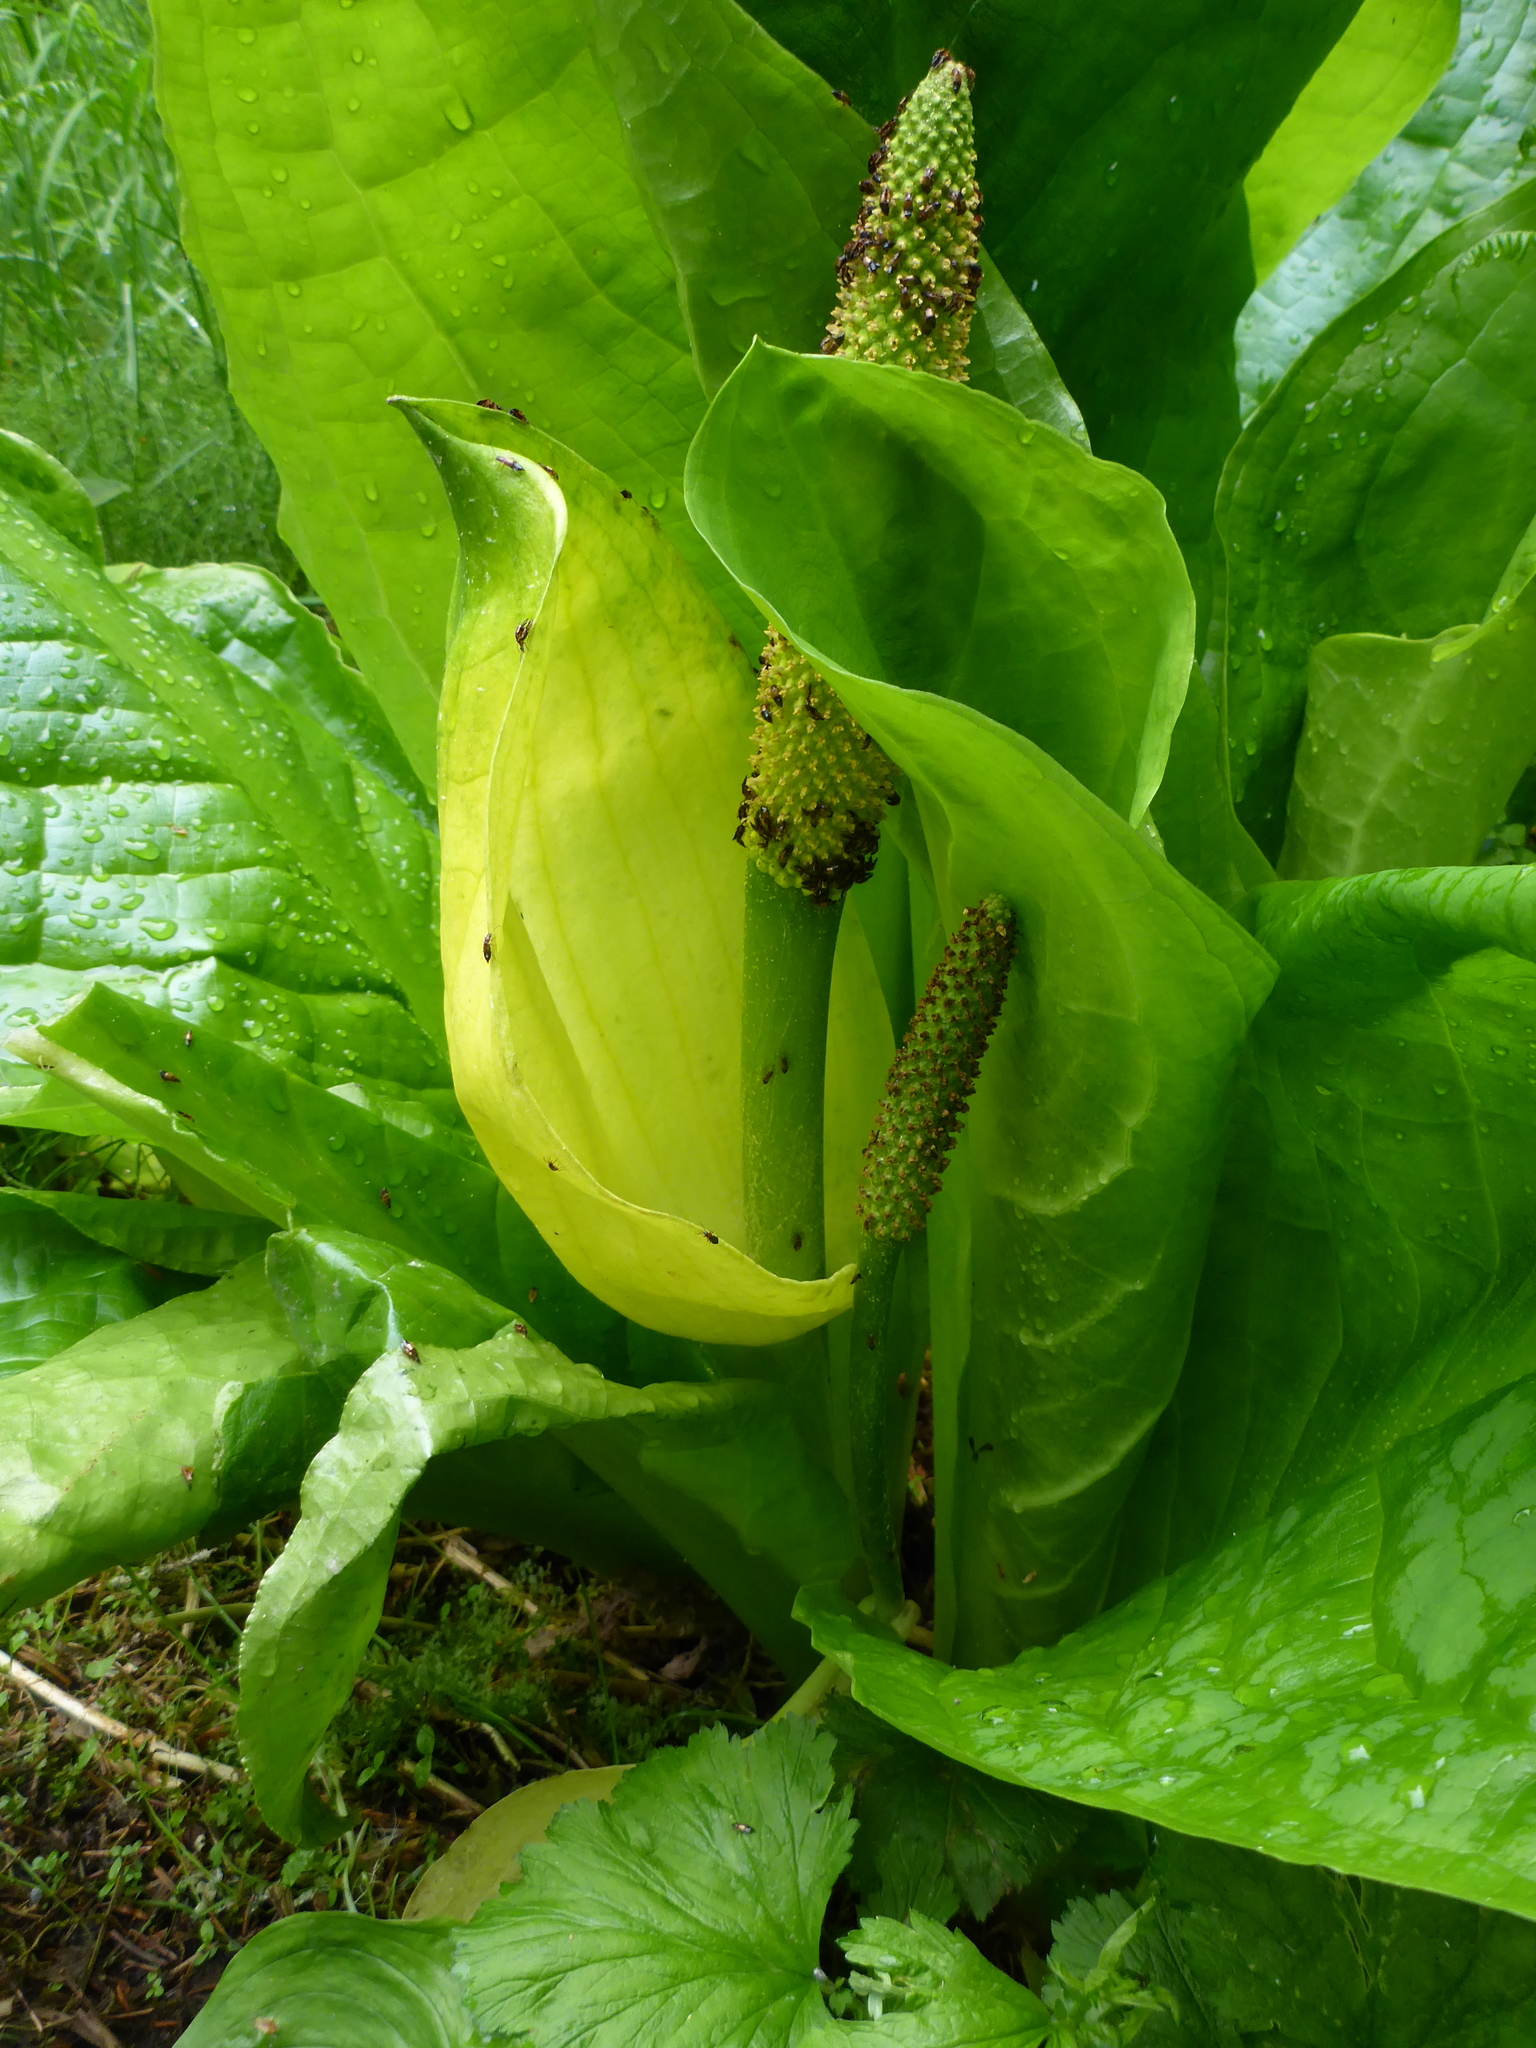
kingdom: Plantae
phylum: Tracheophyta
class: Liliopsida
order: Alismatales
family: Araceae
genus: Lysichiton
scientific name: Lysichiton americanus
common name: American skunk cabbage
